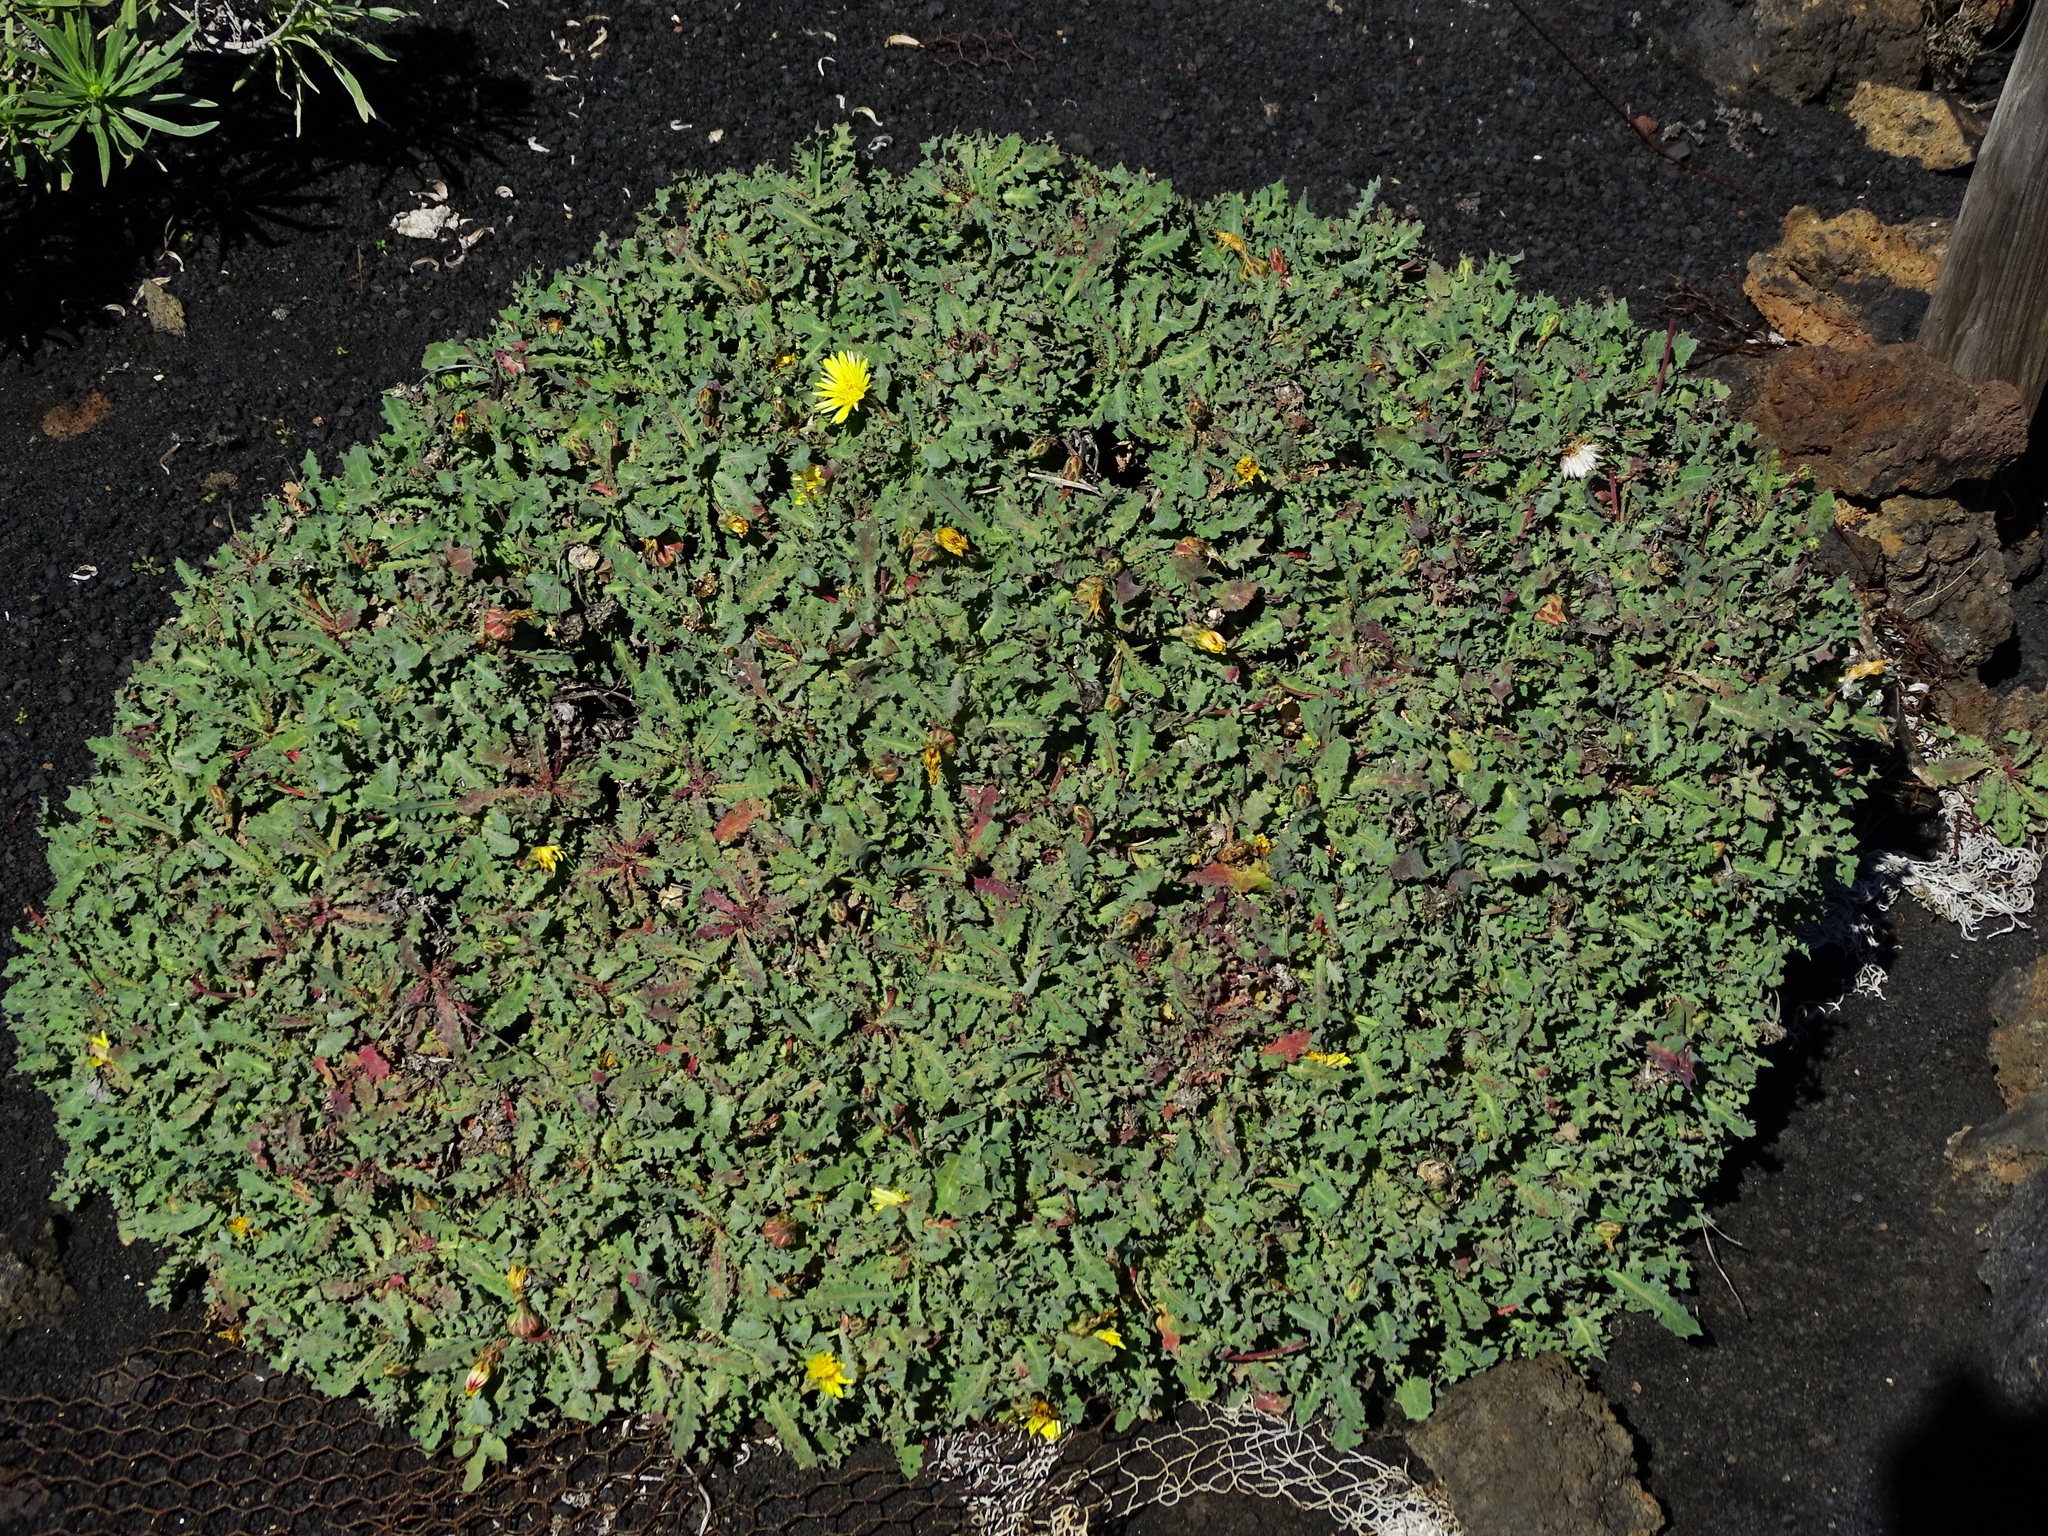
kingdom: Plantae
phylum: Tracheophyta
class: Magnoliopsida
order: Asterales
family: Asteraceae
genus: Reichardia
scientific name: Reichardia ligulata
